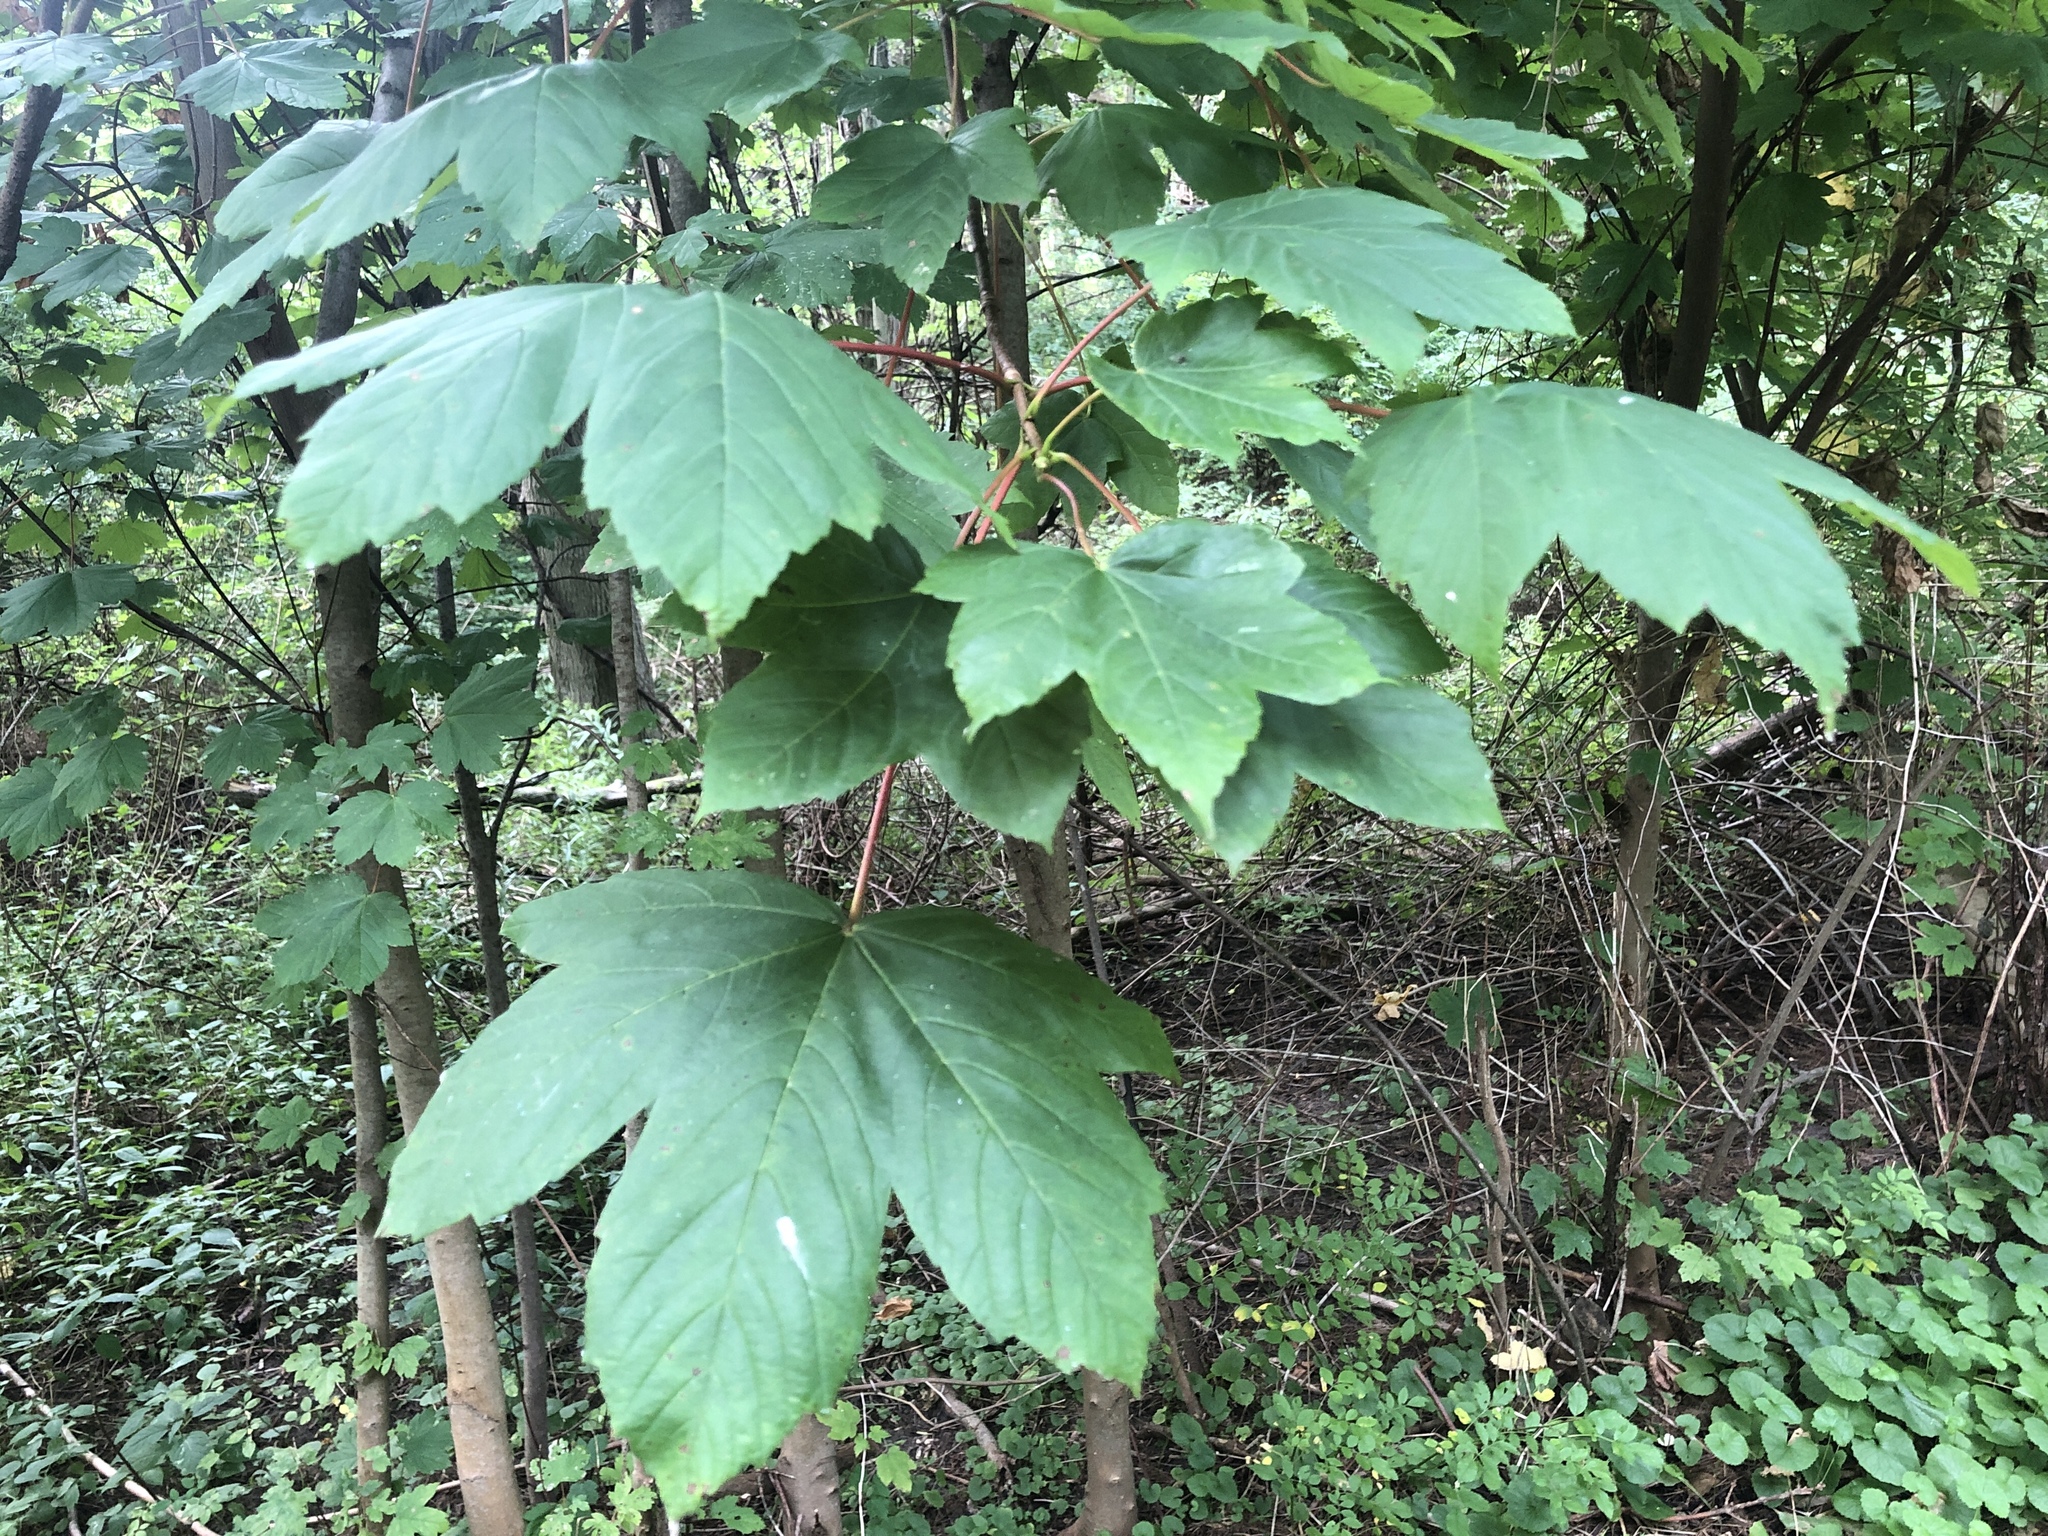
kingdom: Plantae
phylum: Tracheophyta
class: Magnoliopsida
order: Sapindales
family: Sapindaceae
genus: Acer
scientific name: Acer pseudoplatanus
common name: Sycamore
